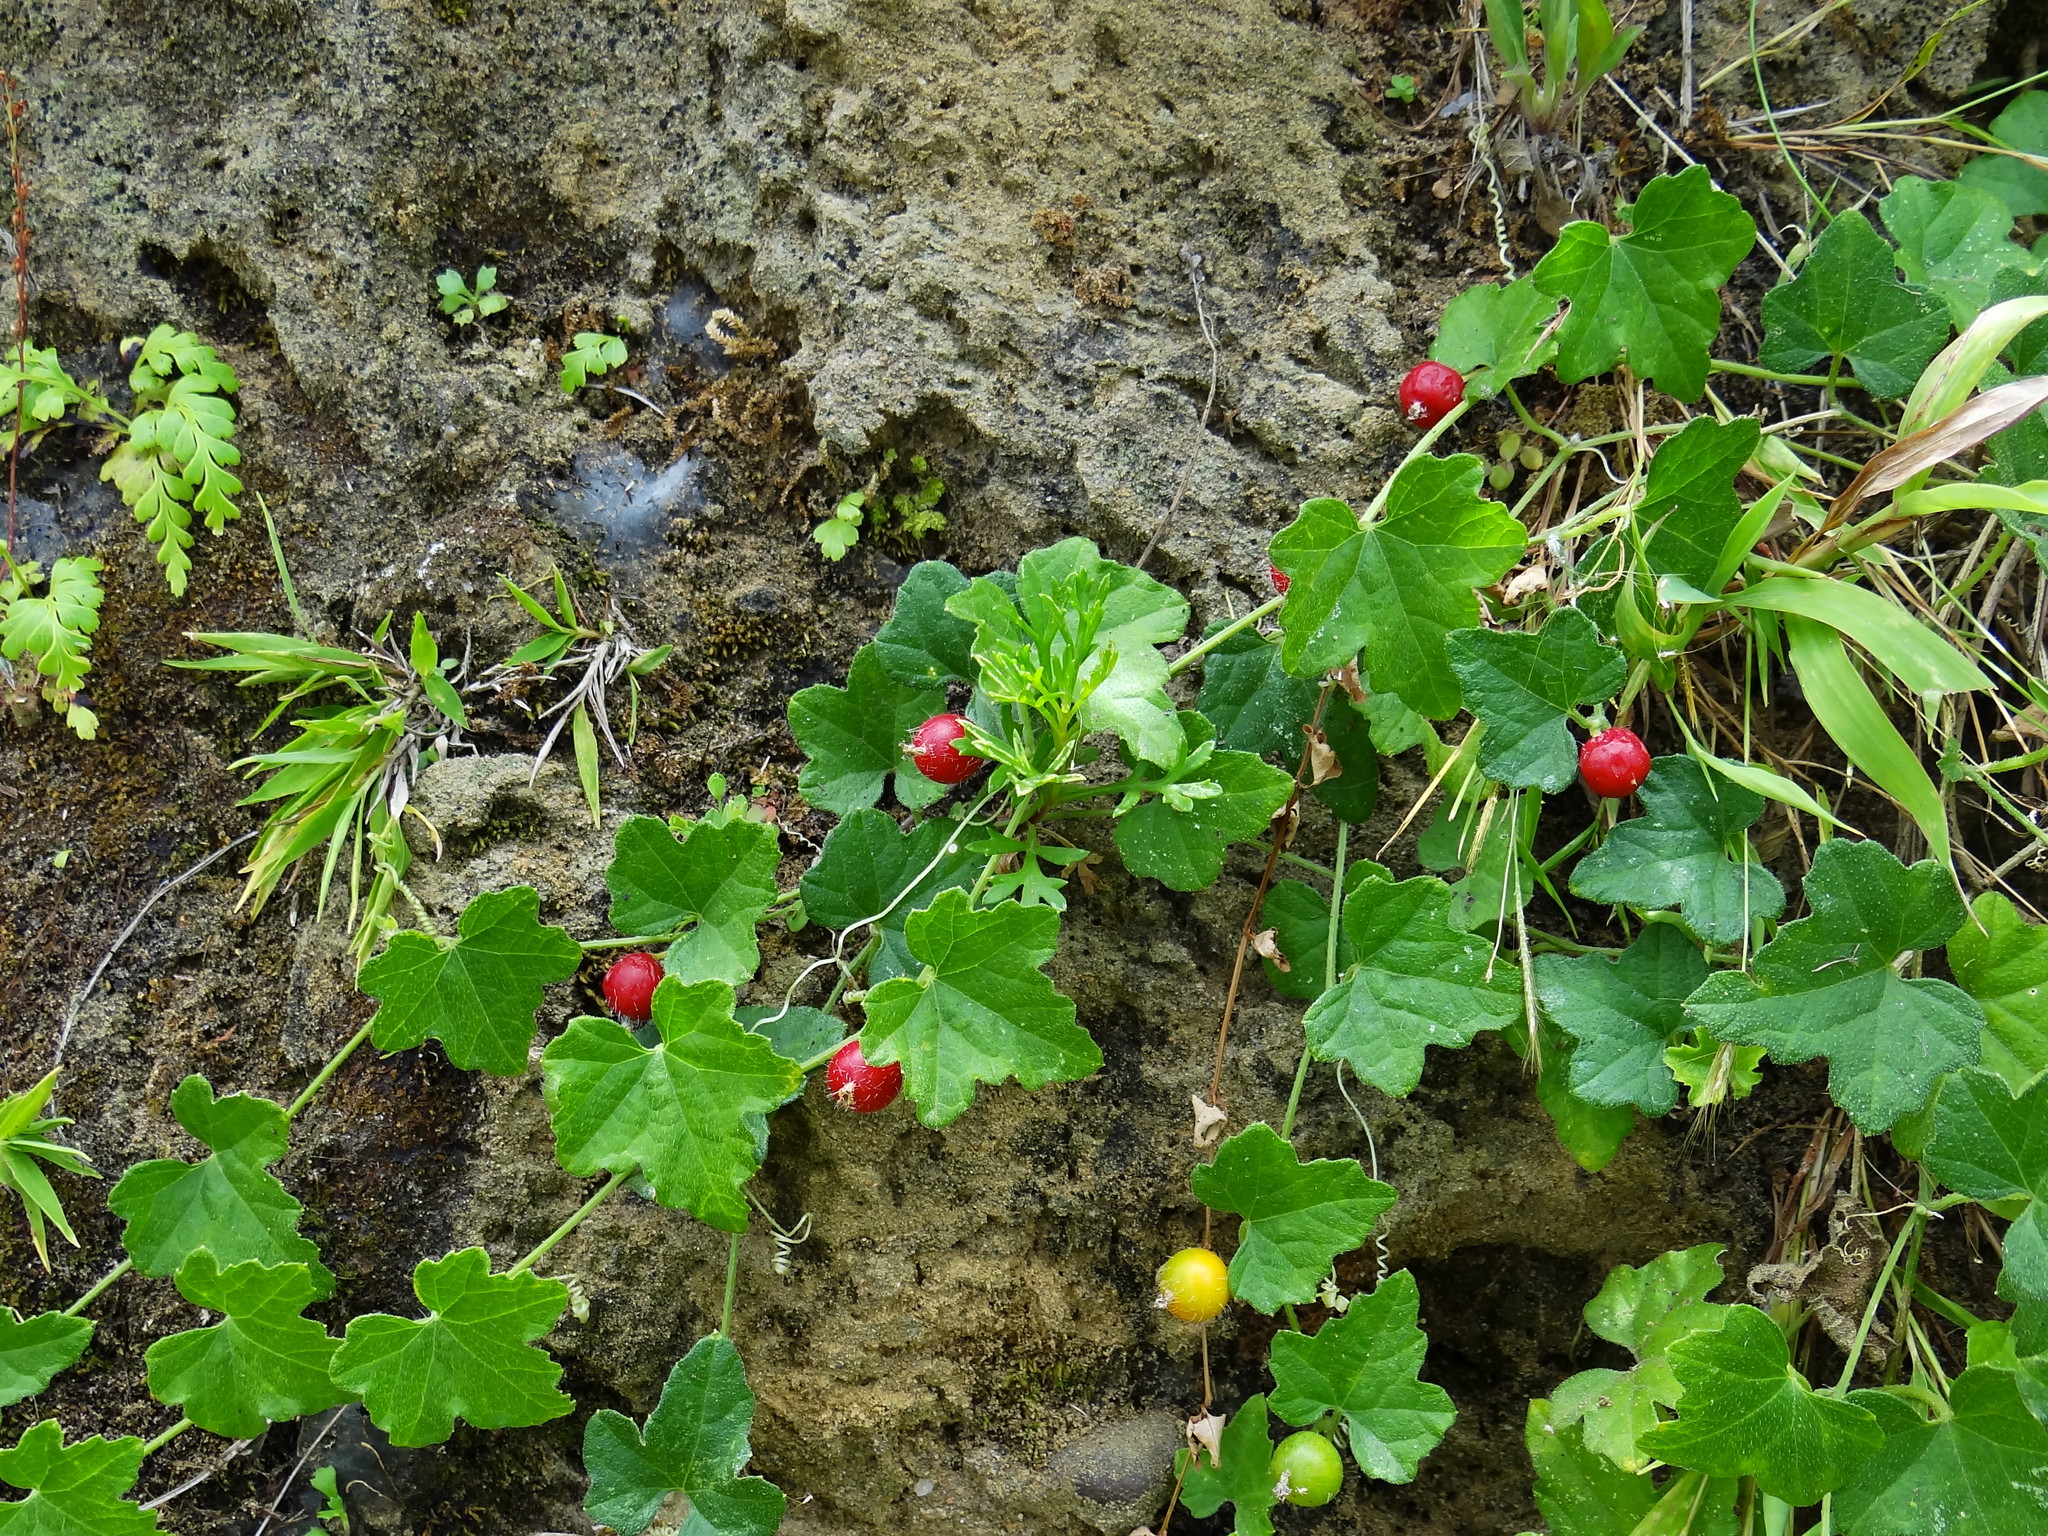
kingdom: Plantae
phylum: Tracheophyta
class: Magnoliopsida
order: Cucurbitales
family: Cucurbitaceae
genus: Cucumis
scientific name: Cucumis maderaspatanus
